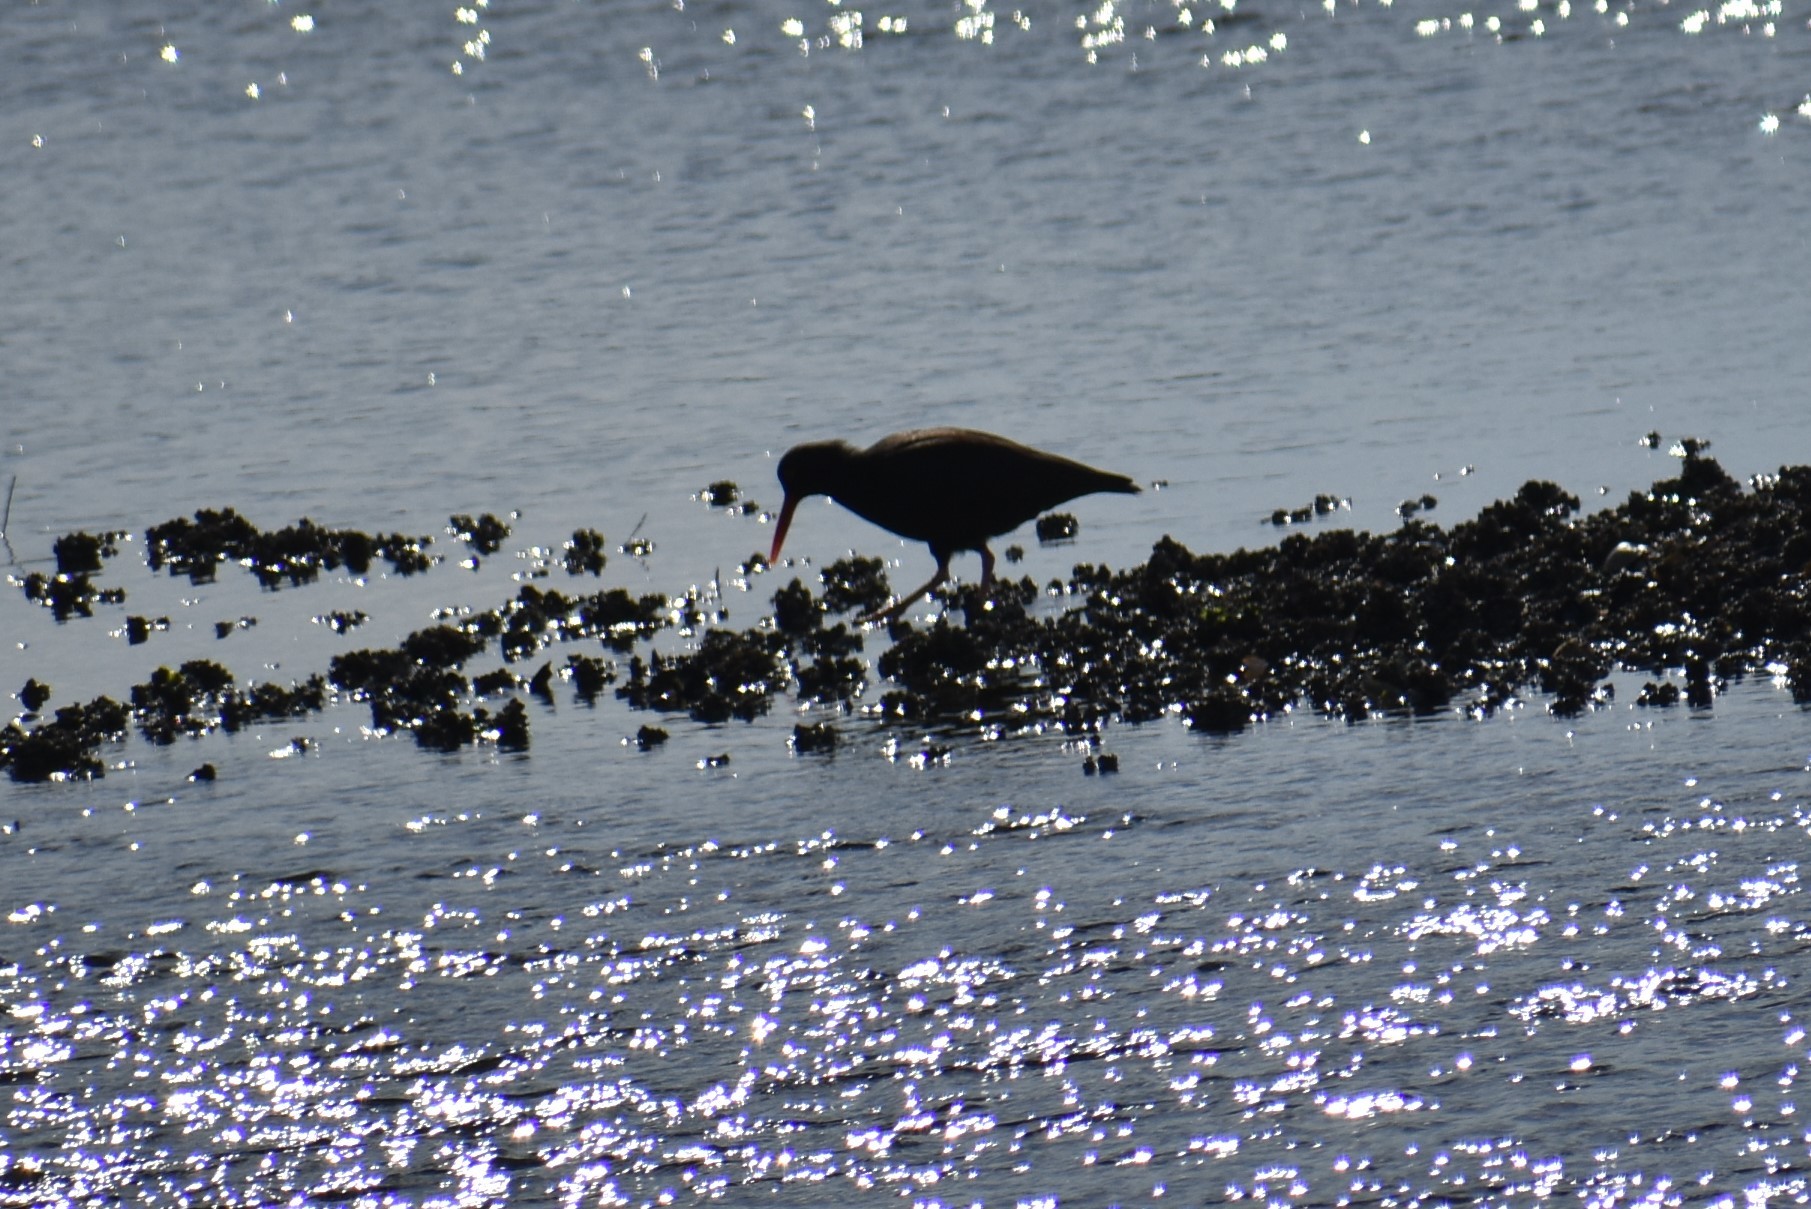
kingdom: Animalia
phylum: Chordata
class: Aves
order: Charadriiformes
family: Haematopodidae
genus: Haematopus
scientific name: Haematopus bachmani
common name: Black oystercatcher
